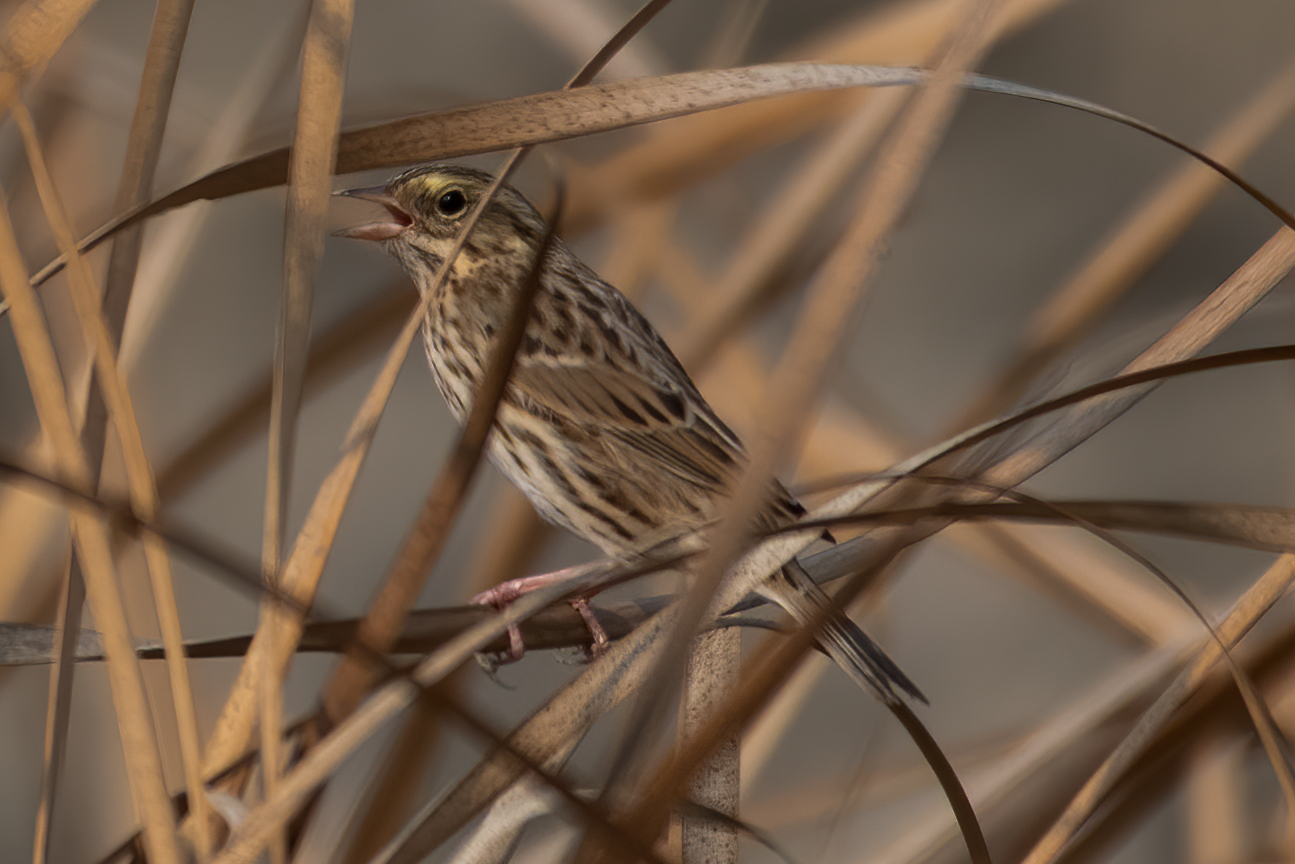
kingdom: Animalia
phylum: Chordata
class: Aves
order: Passeriformes
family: Passerellidae
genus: Passerculus
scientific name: Passerculus sandwichensis
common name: Savannah sparrow
